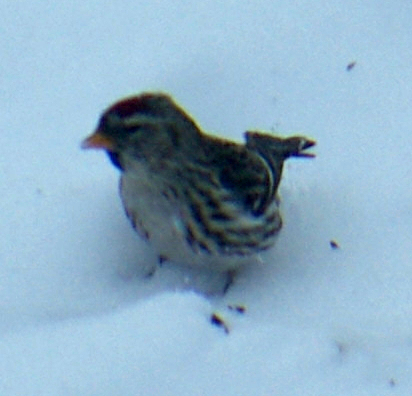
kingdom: Animalia
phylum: Chordata
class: Aves
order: Passeriformes
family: Fringillidae
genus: Acanthis
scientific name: Acanthis flammea
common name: Common redpoll
